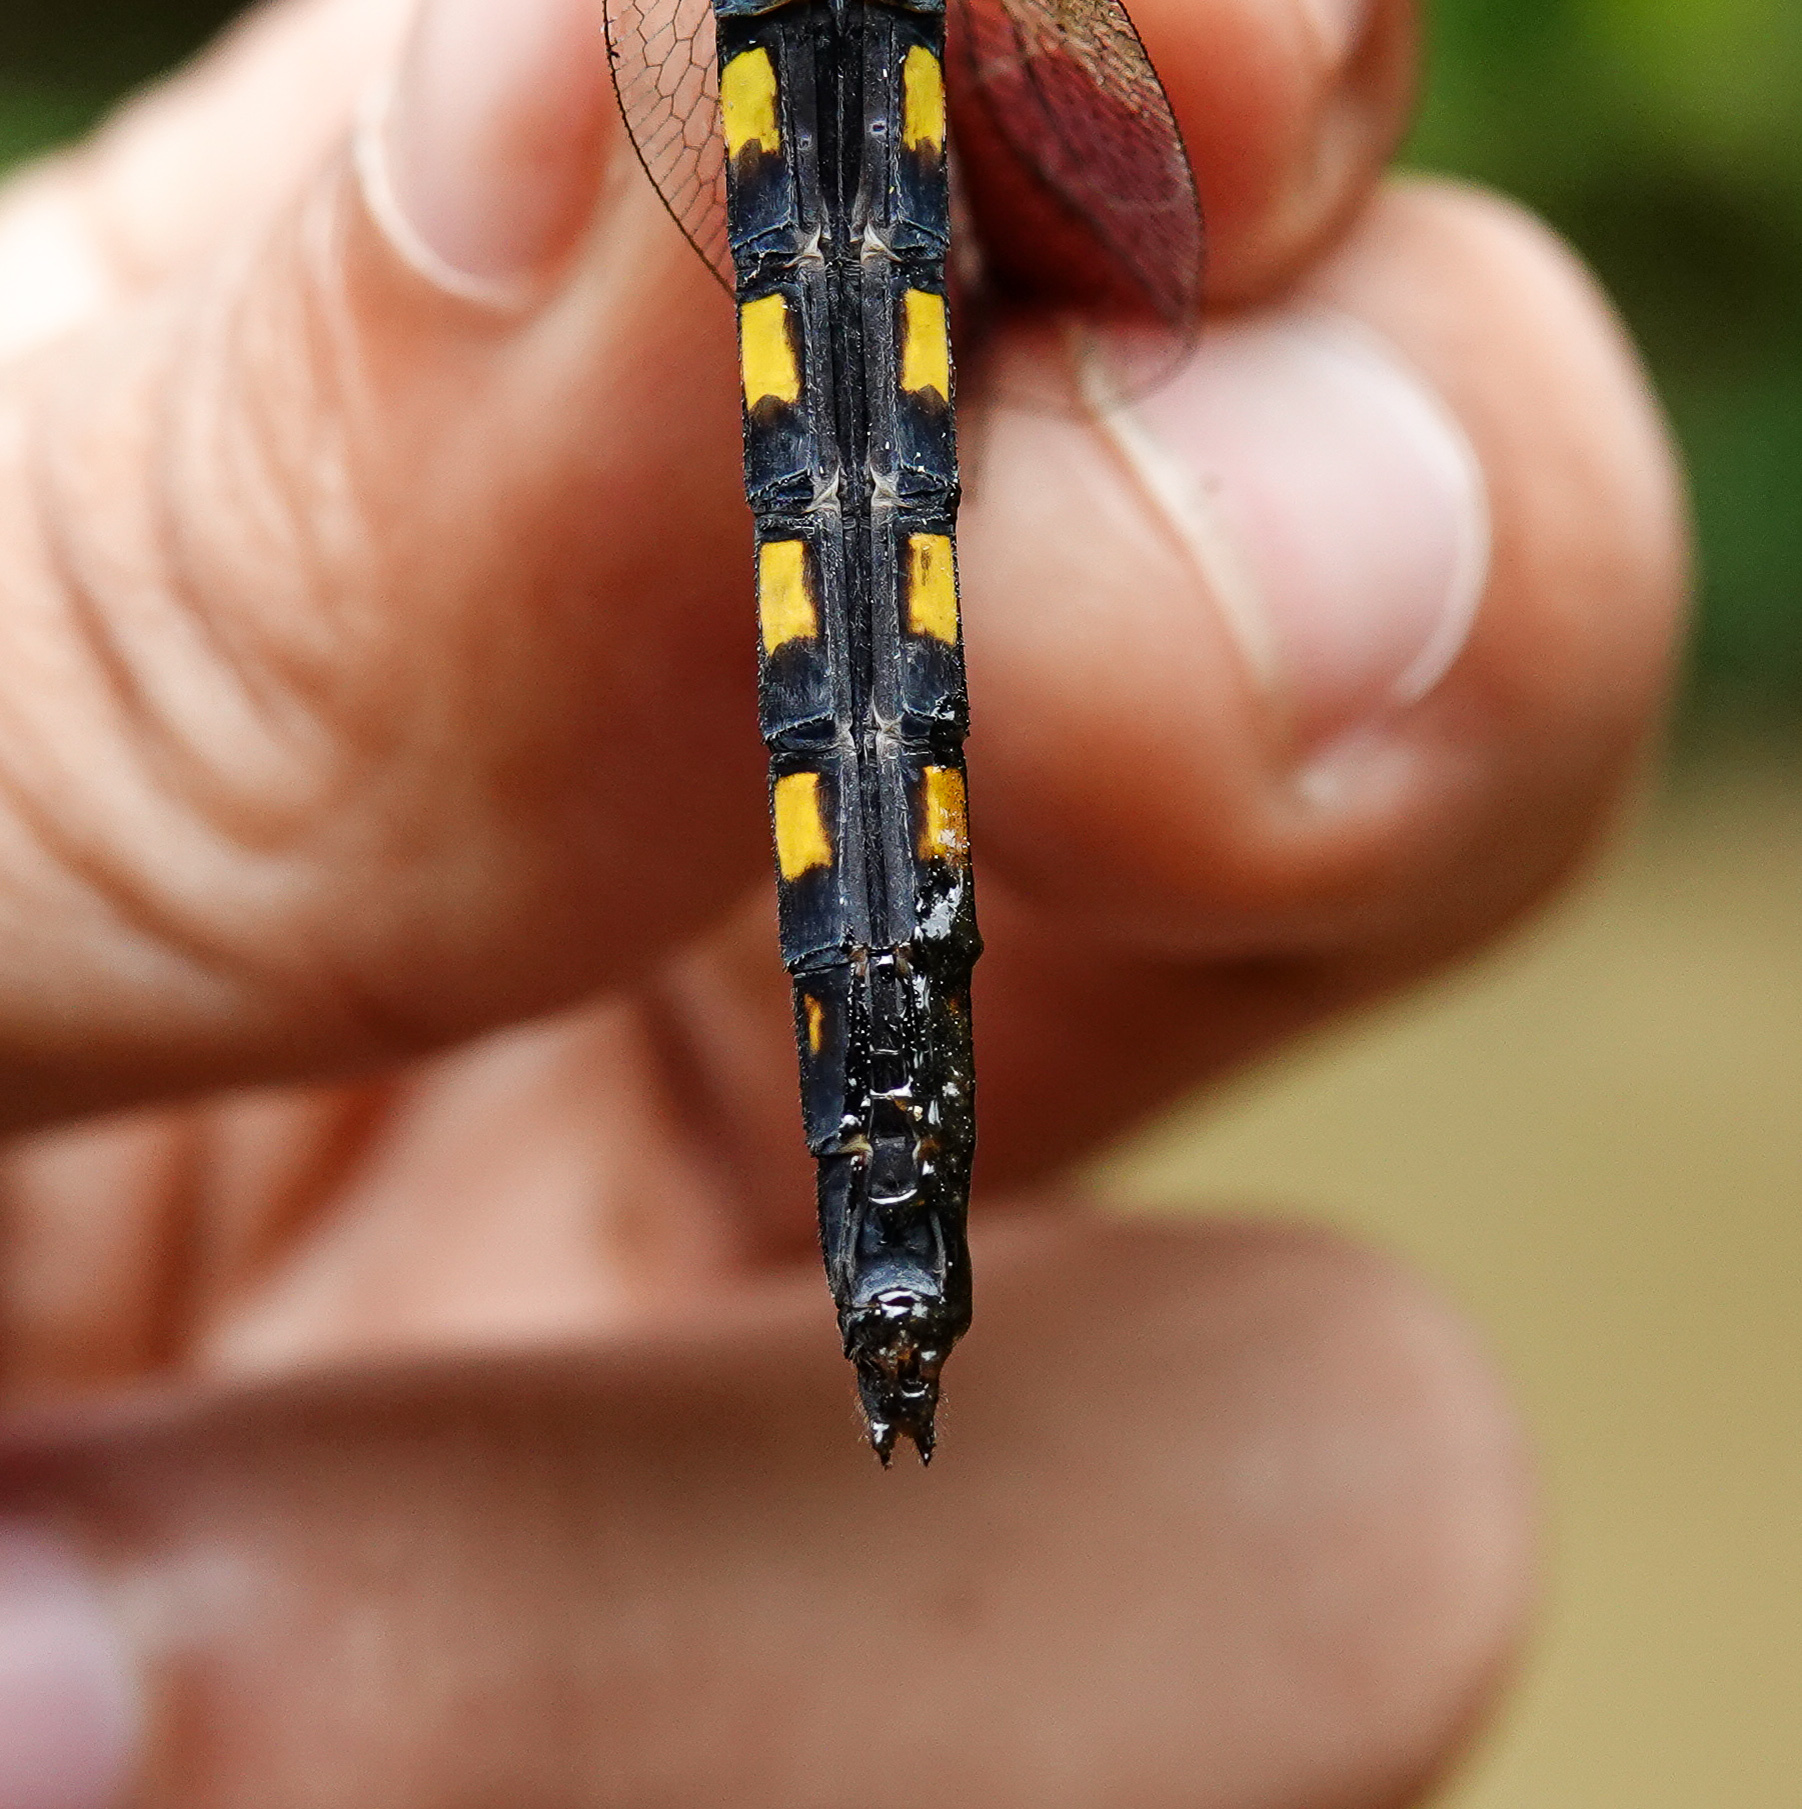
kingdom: Animalia
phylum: Arthropoda
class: Insecta
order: Odonata
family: Libellulidae
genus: Onychothemis
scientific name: Onychothemis testacea
